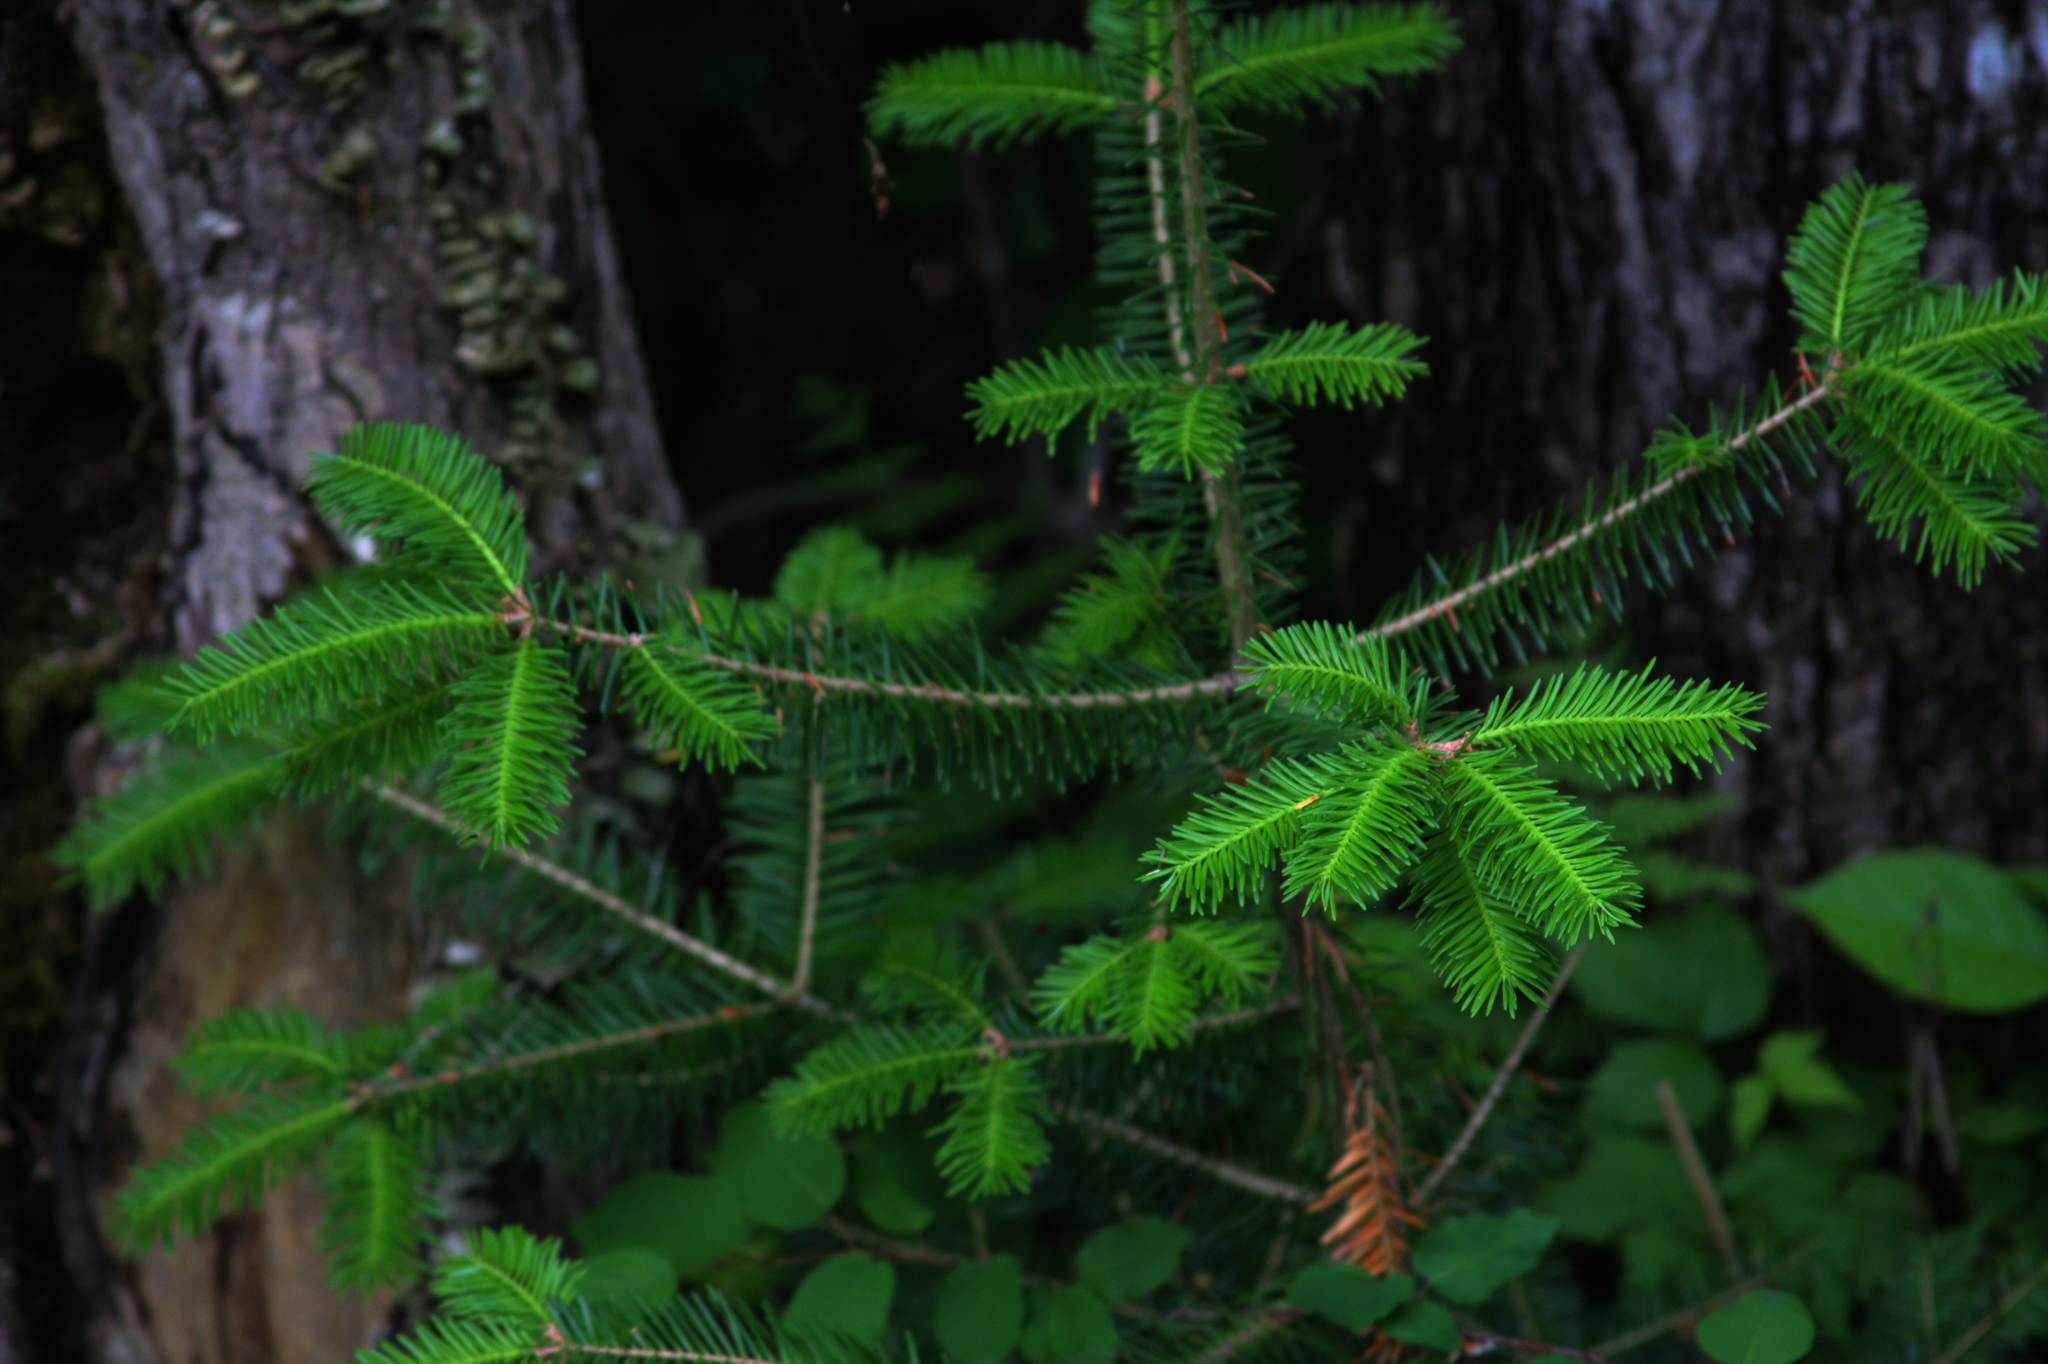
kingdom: Plantae
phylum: Tracheophyta
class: Pinopsida
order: Pinales
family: Pinaceae
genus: Abies
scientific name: Abies balsamea
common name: Balsam fir
